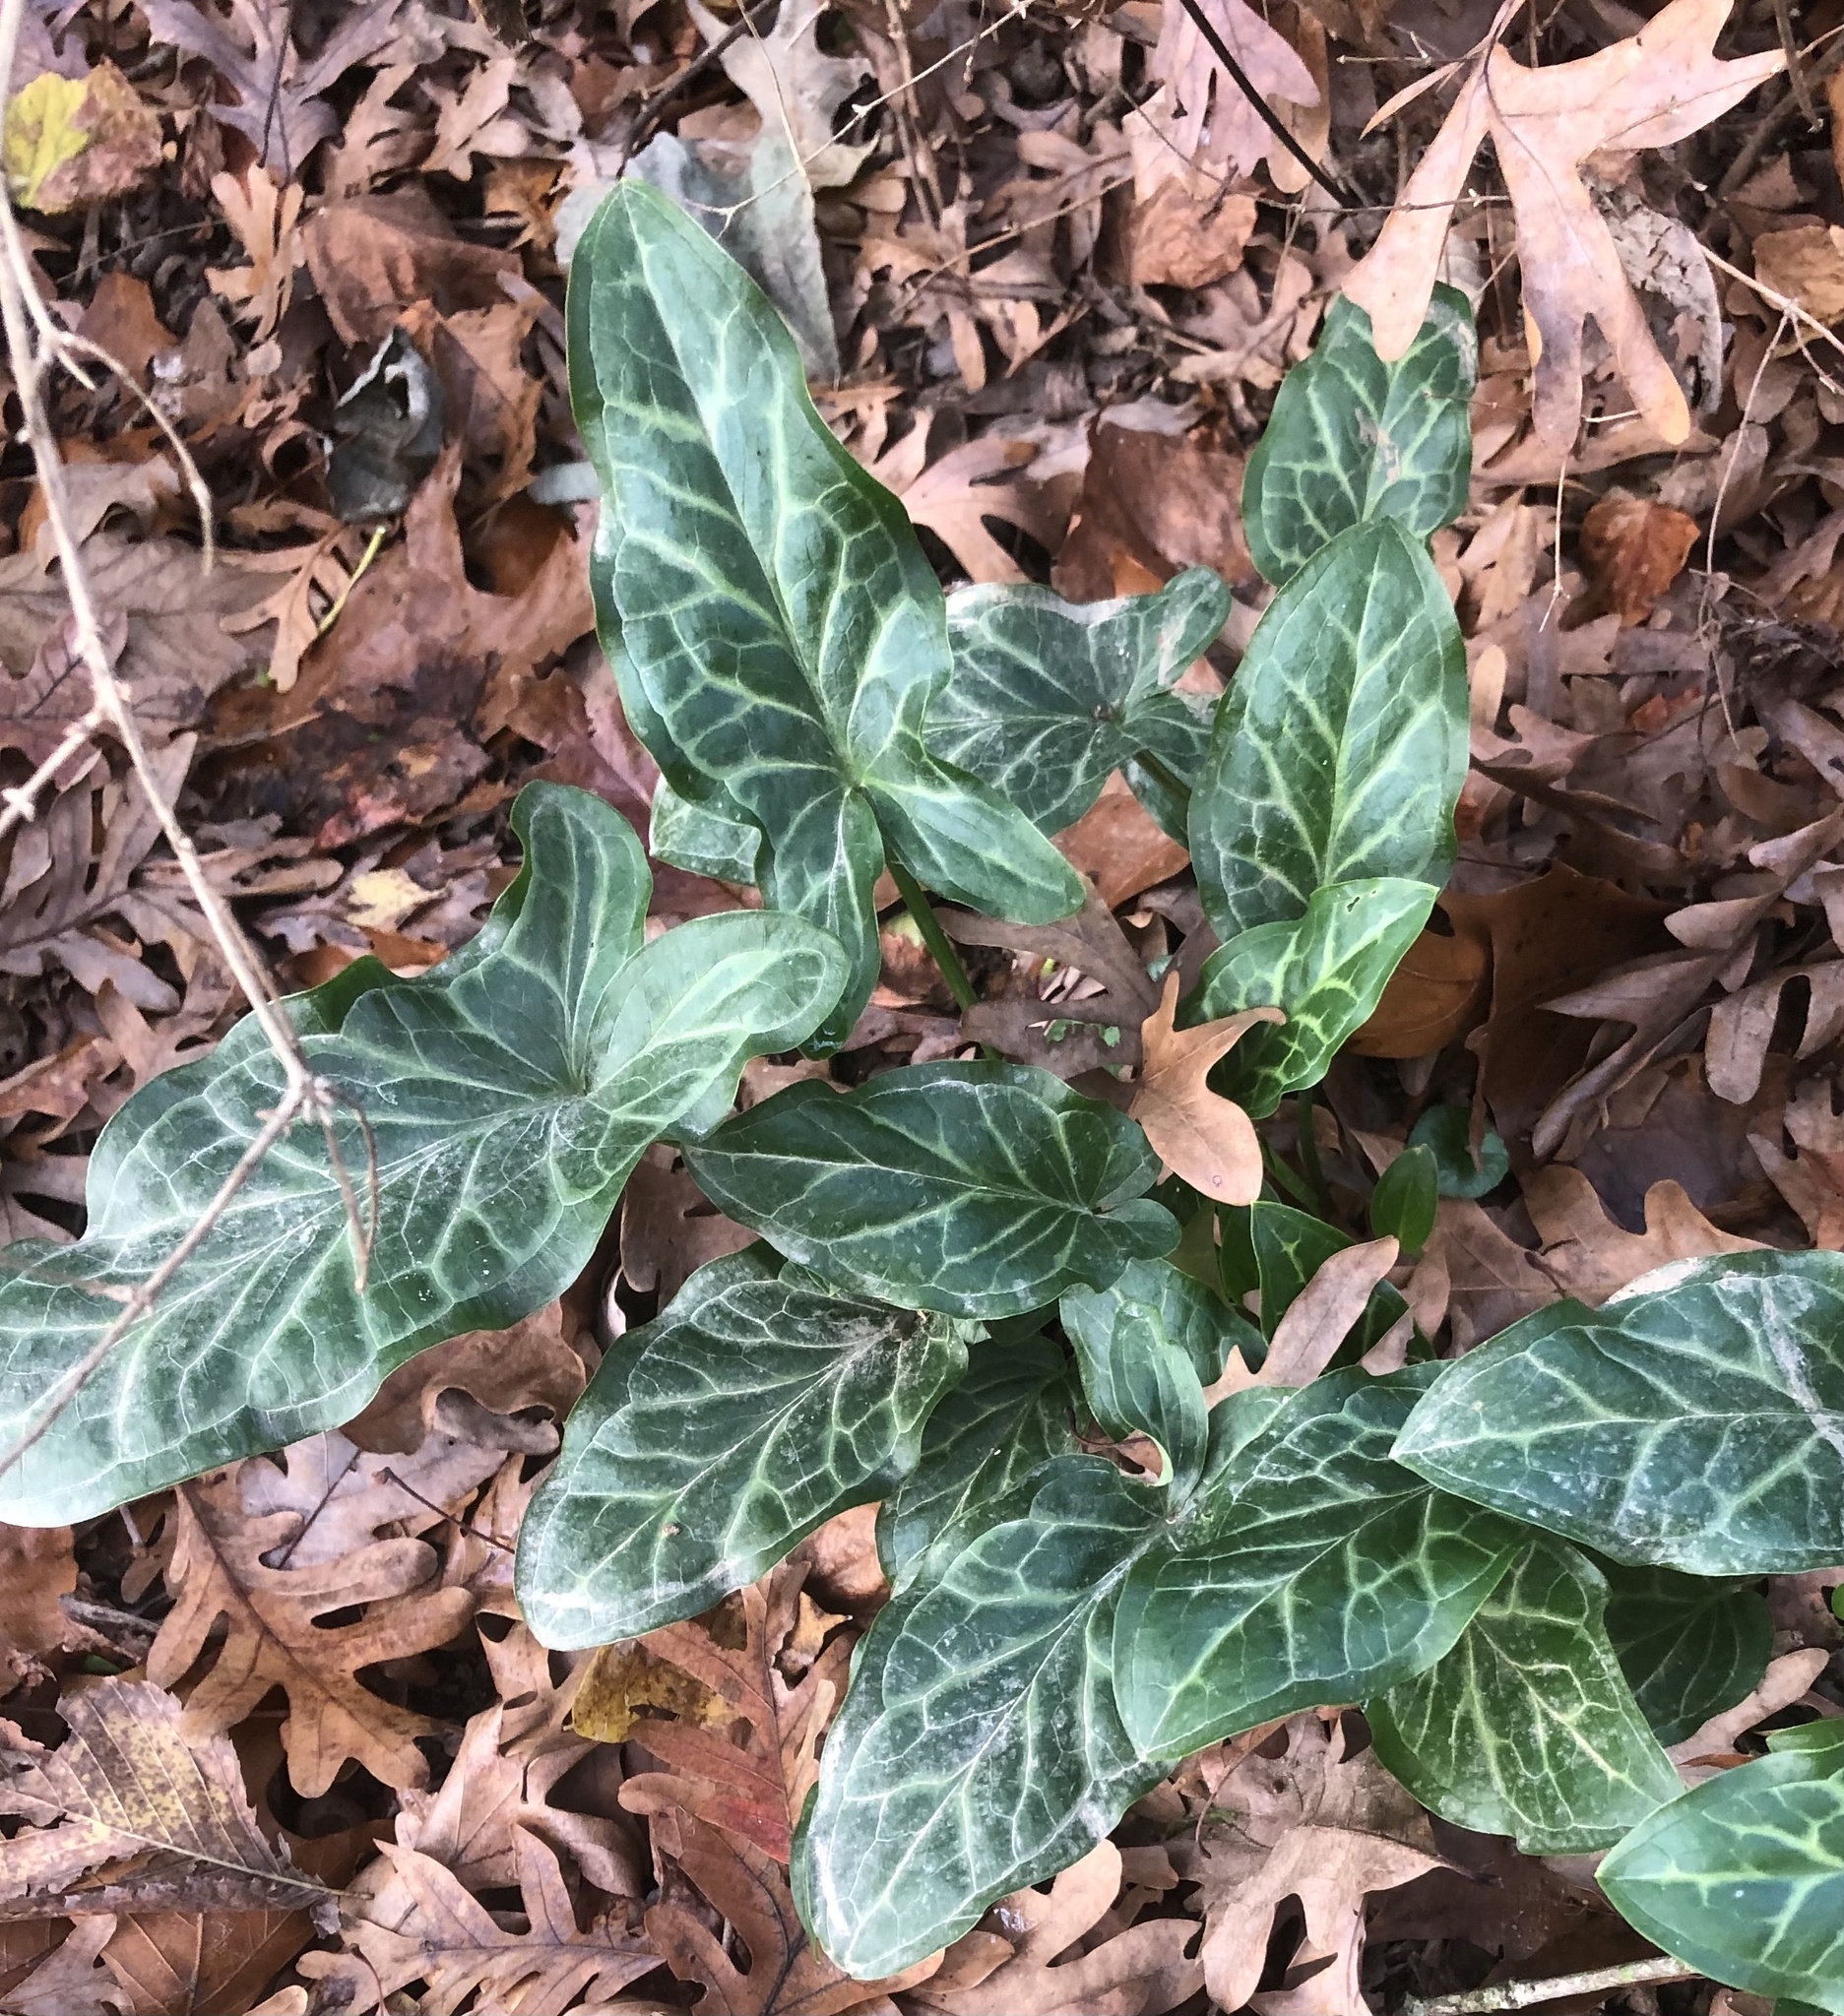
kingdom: Plantae
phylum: Tracheophyta
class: Liliopsida
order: Alismatales
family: Araceae
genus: Arum
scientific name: Arum italicum
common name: Italian lords-and-ladies
